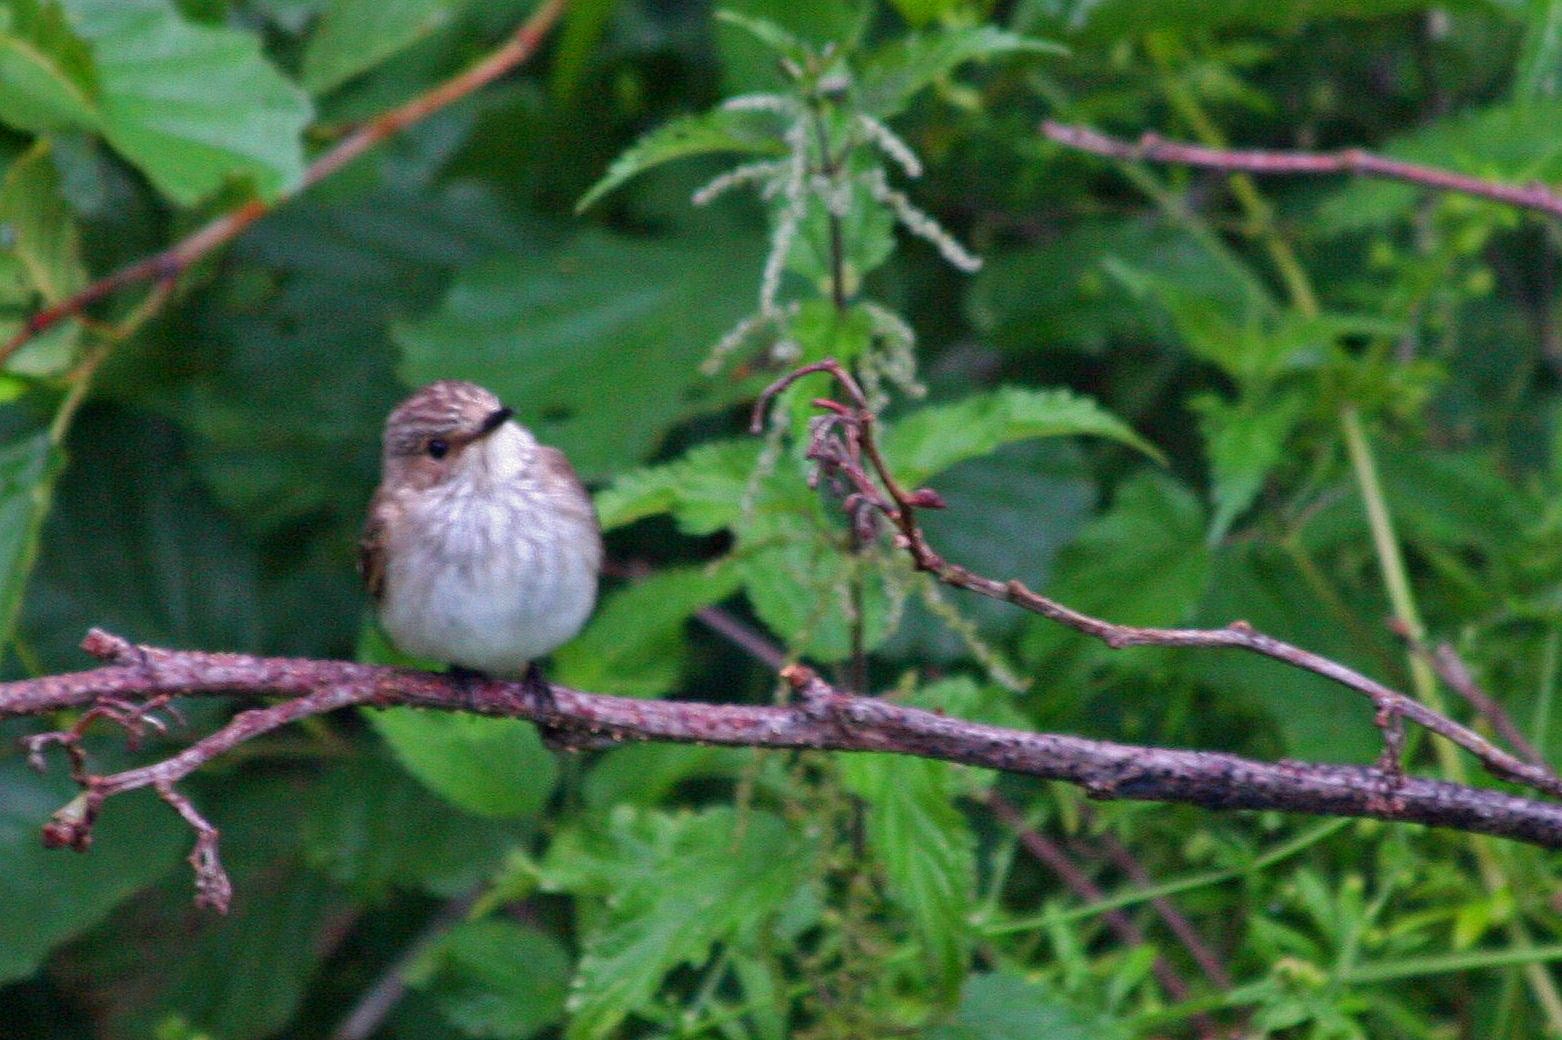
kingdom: Animalia
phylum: Chordata
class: Aves
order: Passeriformes
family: Muscicapidae
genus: Muscicapa
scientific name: Muscicapa striata
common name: Spotted flycatcher
